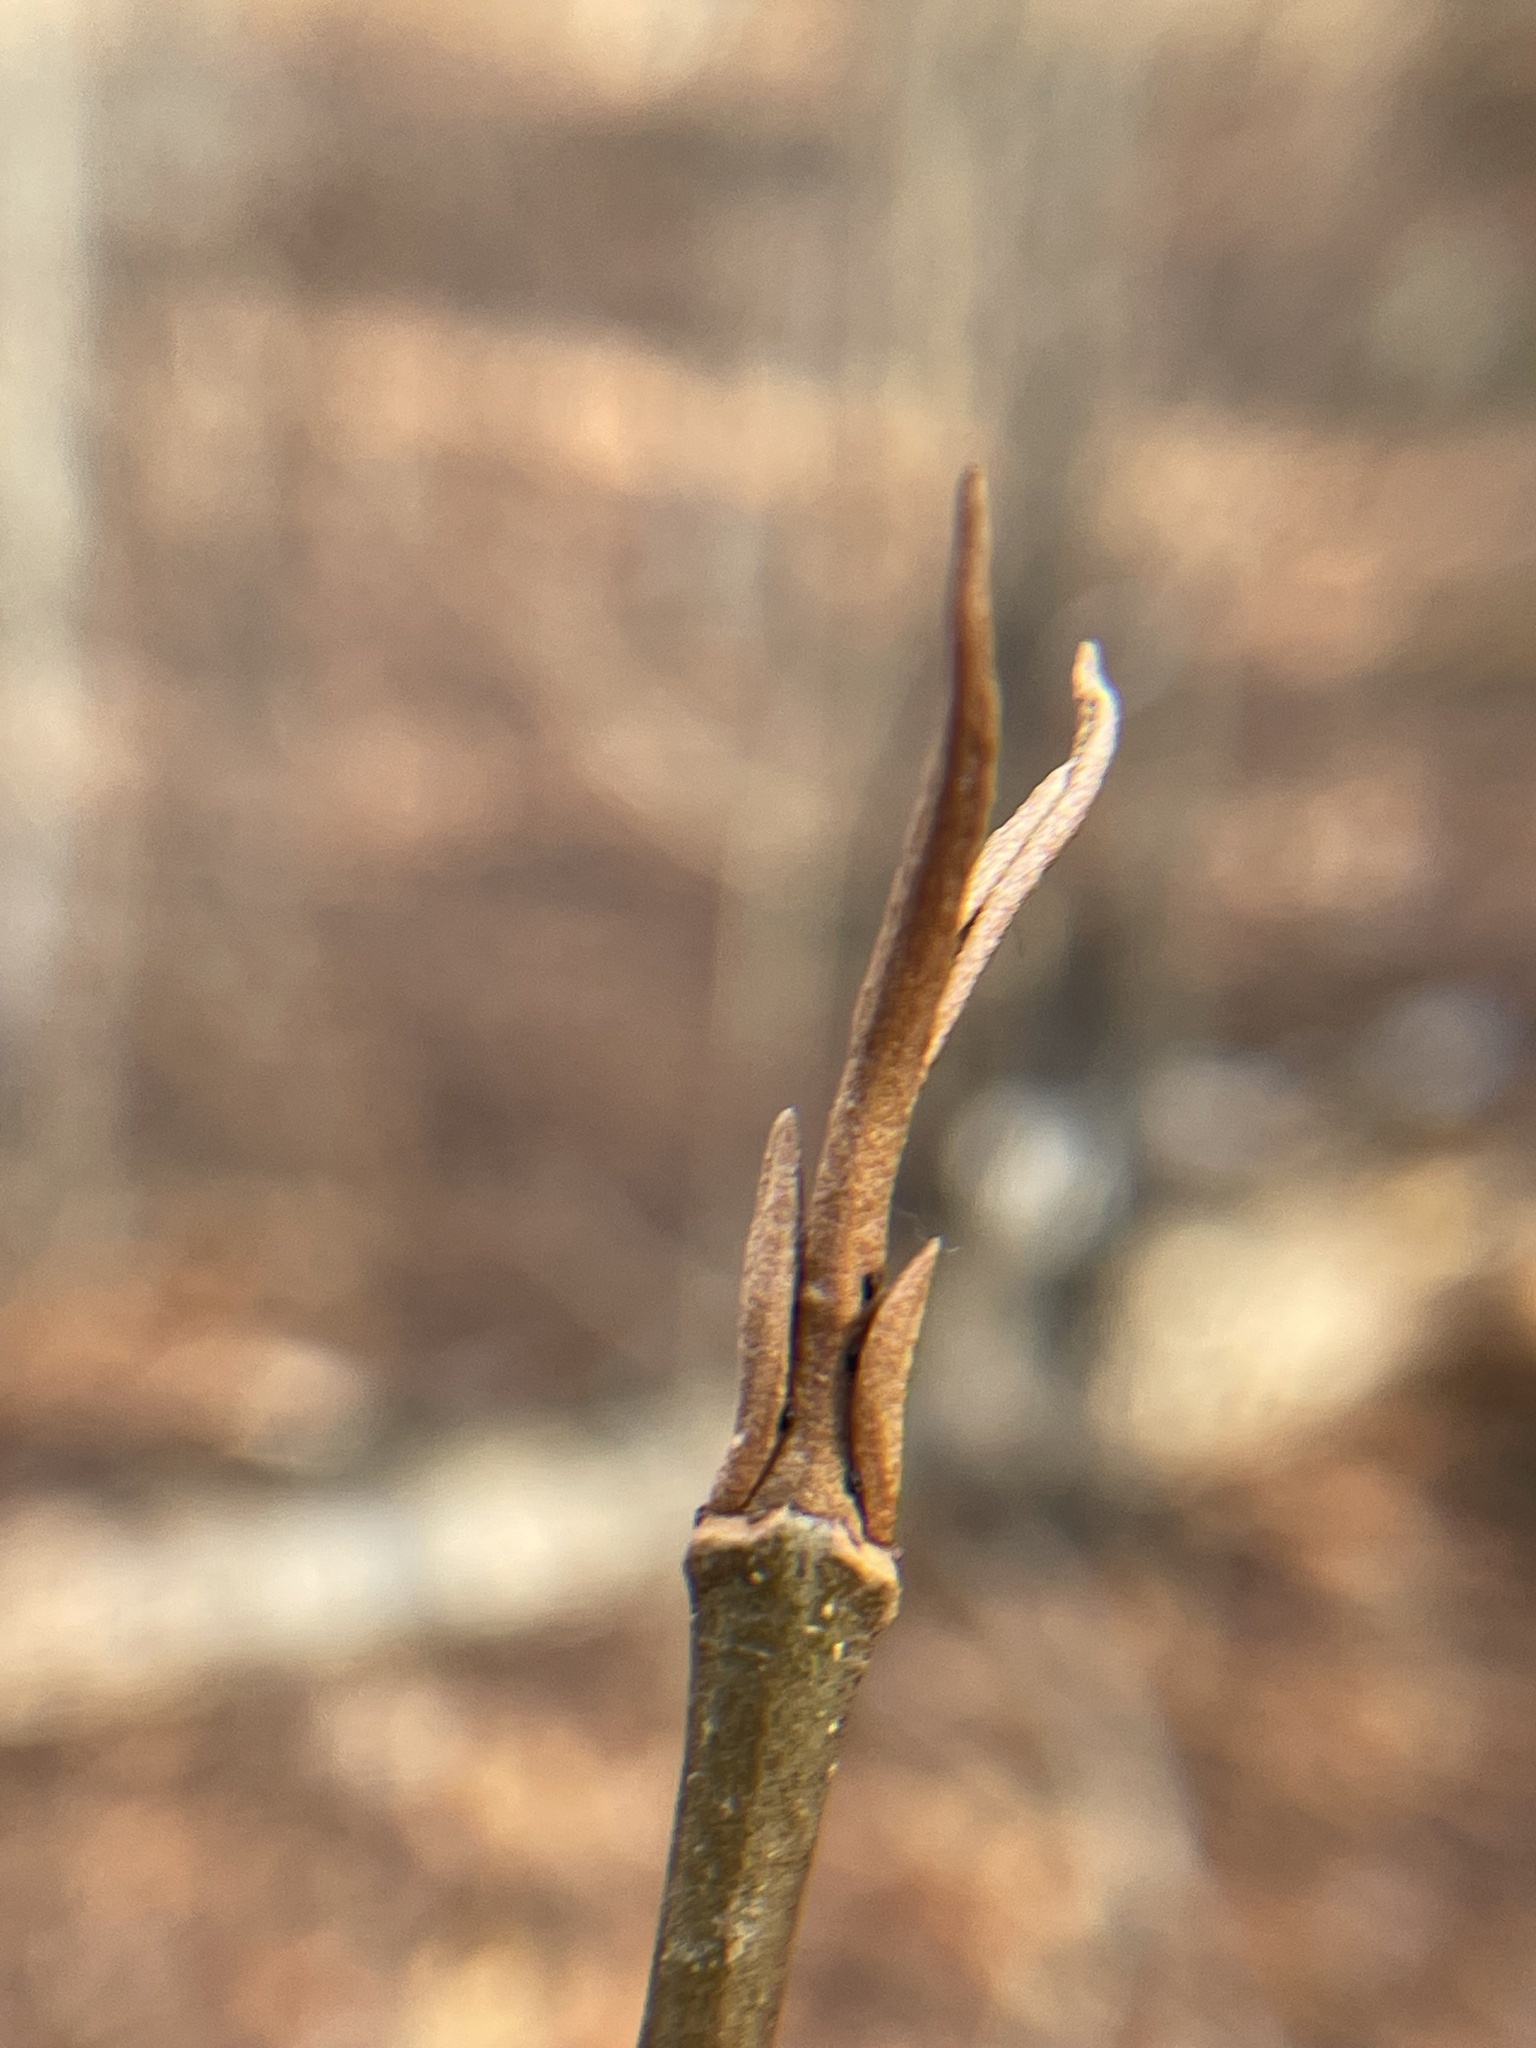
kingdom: Plantae
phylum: Tracheophyta
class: Magnoliopsida
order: Dipsacales
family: Viburnaceae
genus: Viburnum
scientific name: Viburnum cassinoides
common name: Swamp haw
